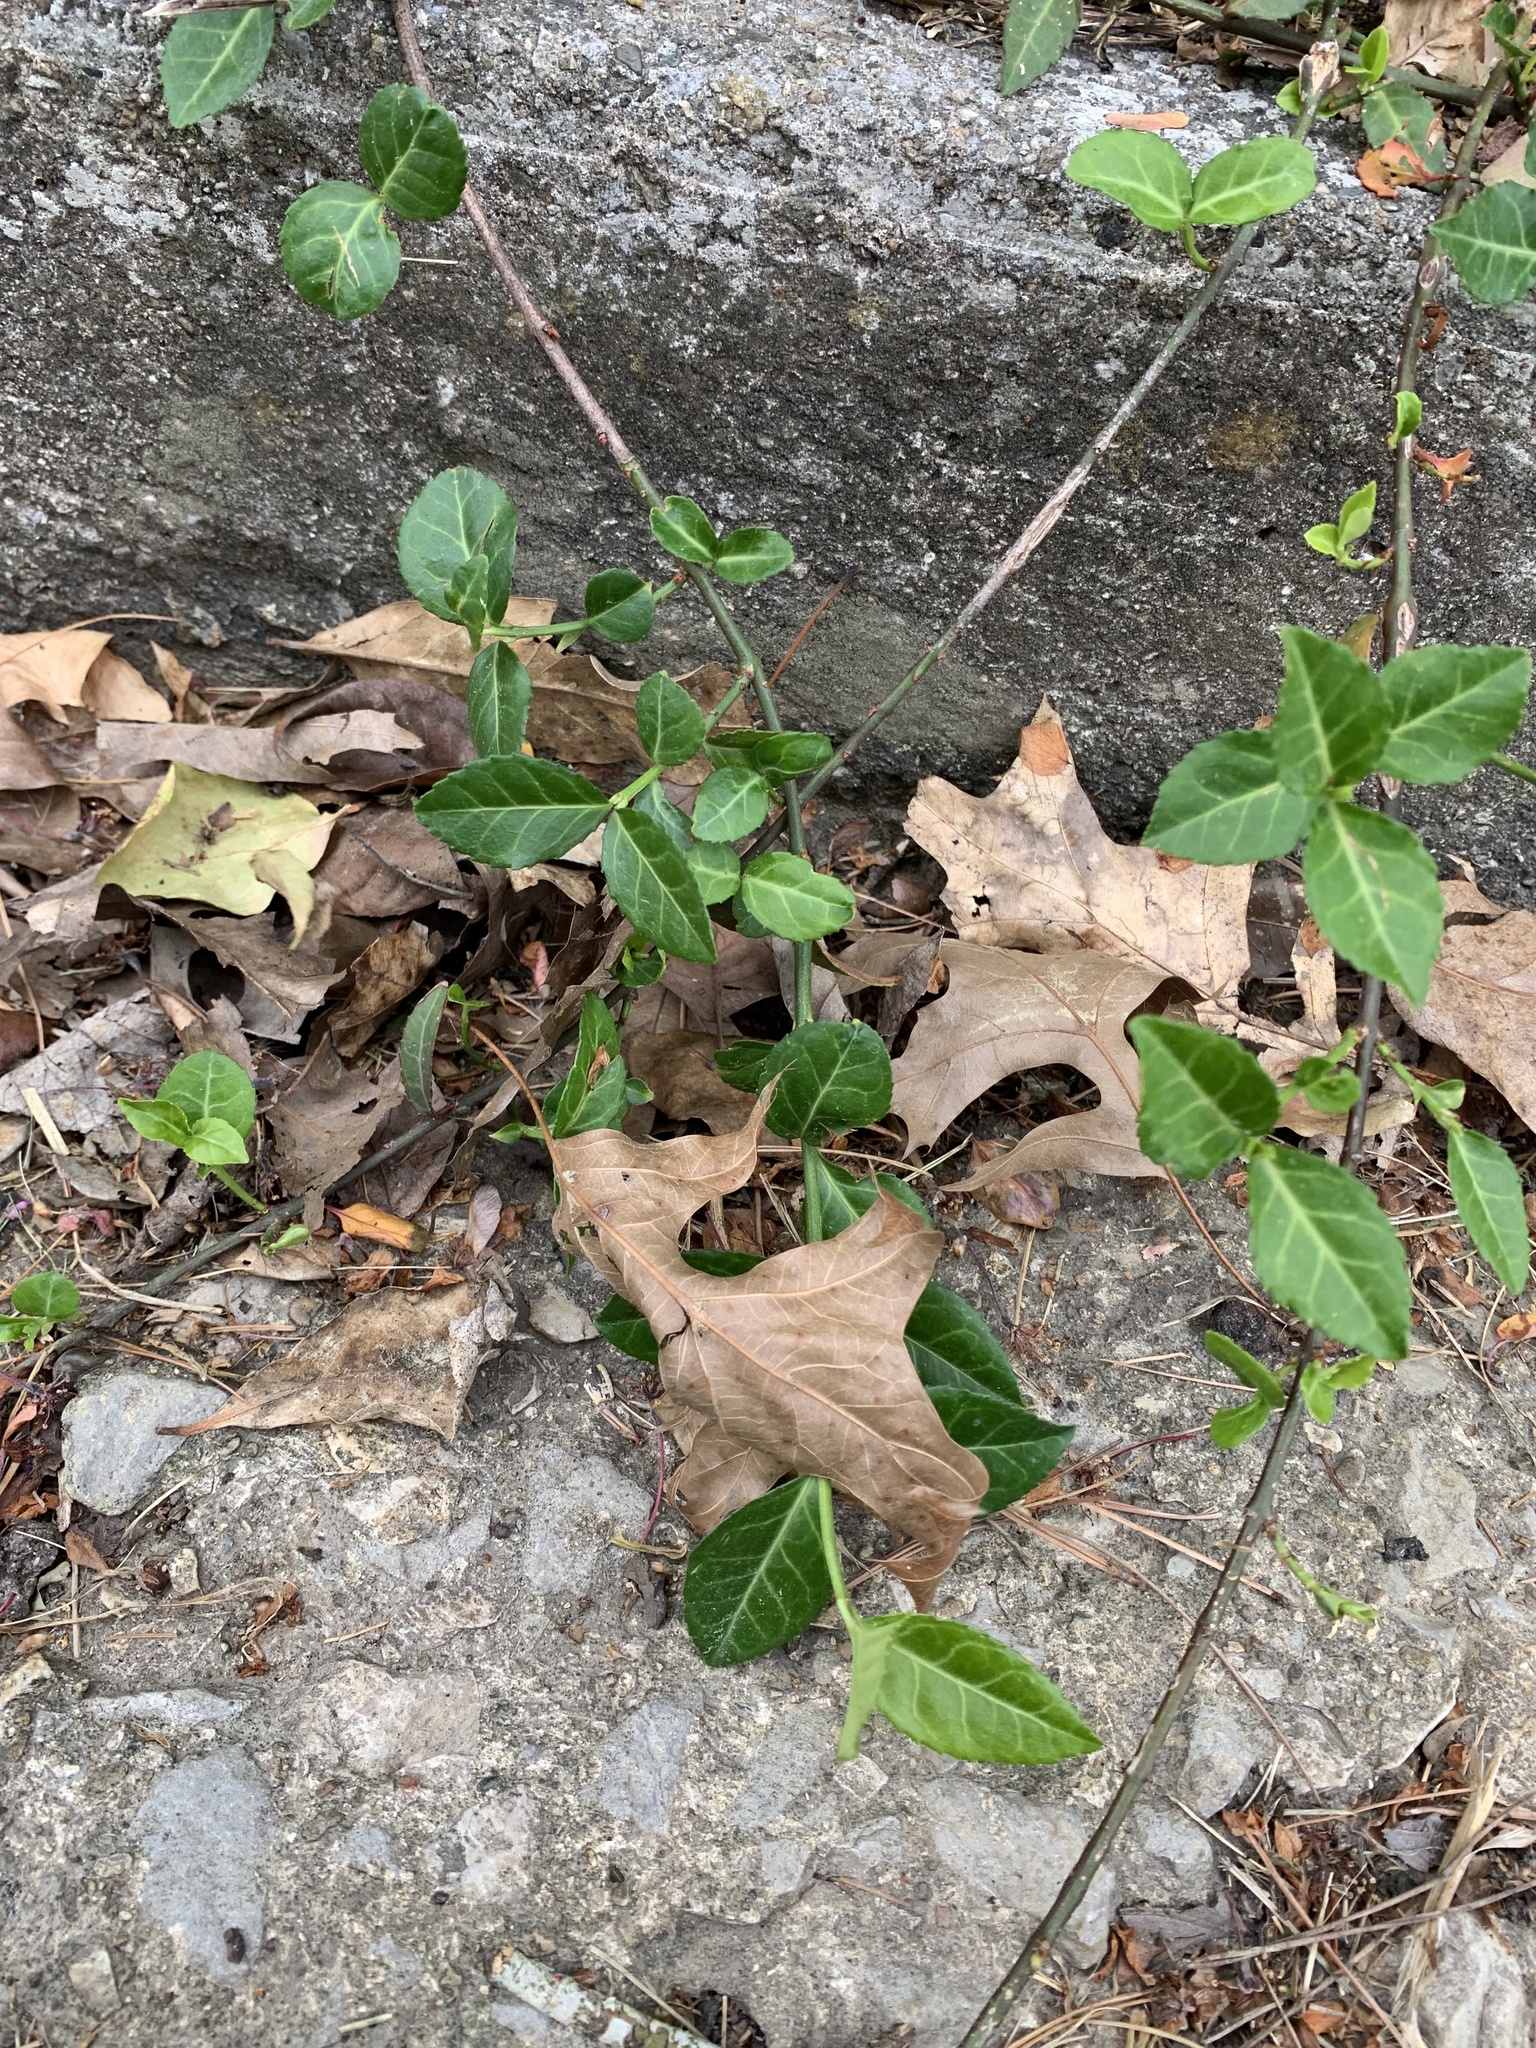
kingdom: Plantae
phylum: Tracheophyta
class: Magnoliopsida
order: Celastrales
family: Celastraceae
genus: Euonymus
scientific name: Euonymus fortunei
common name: Climbing euonymus
